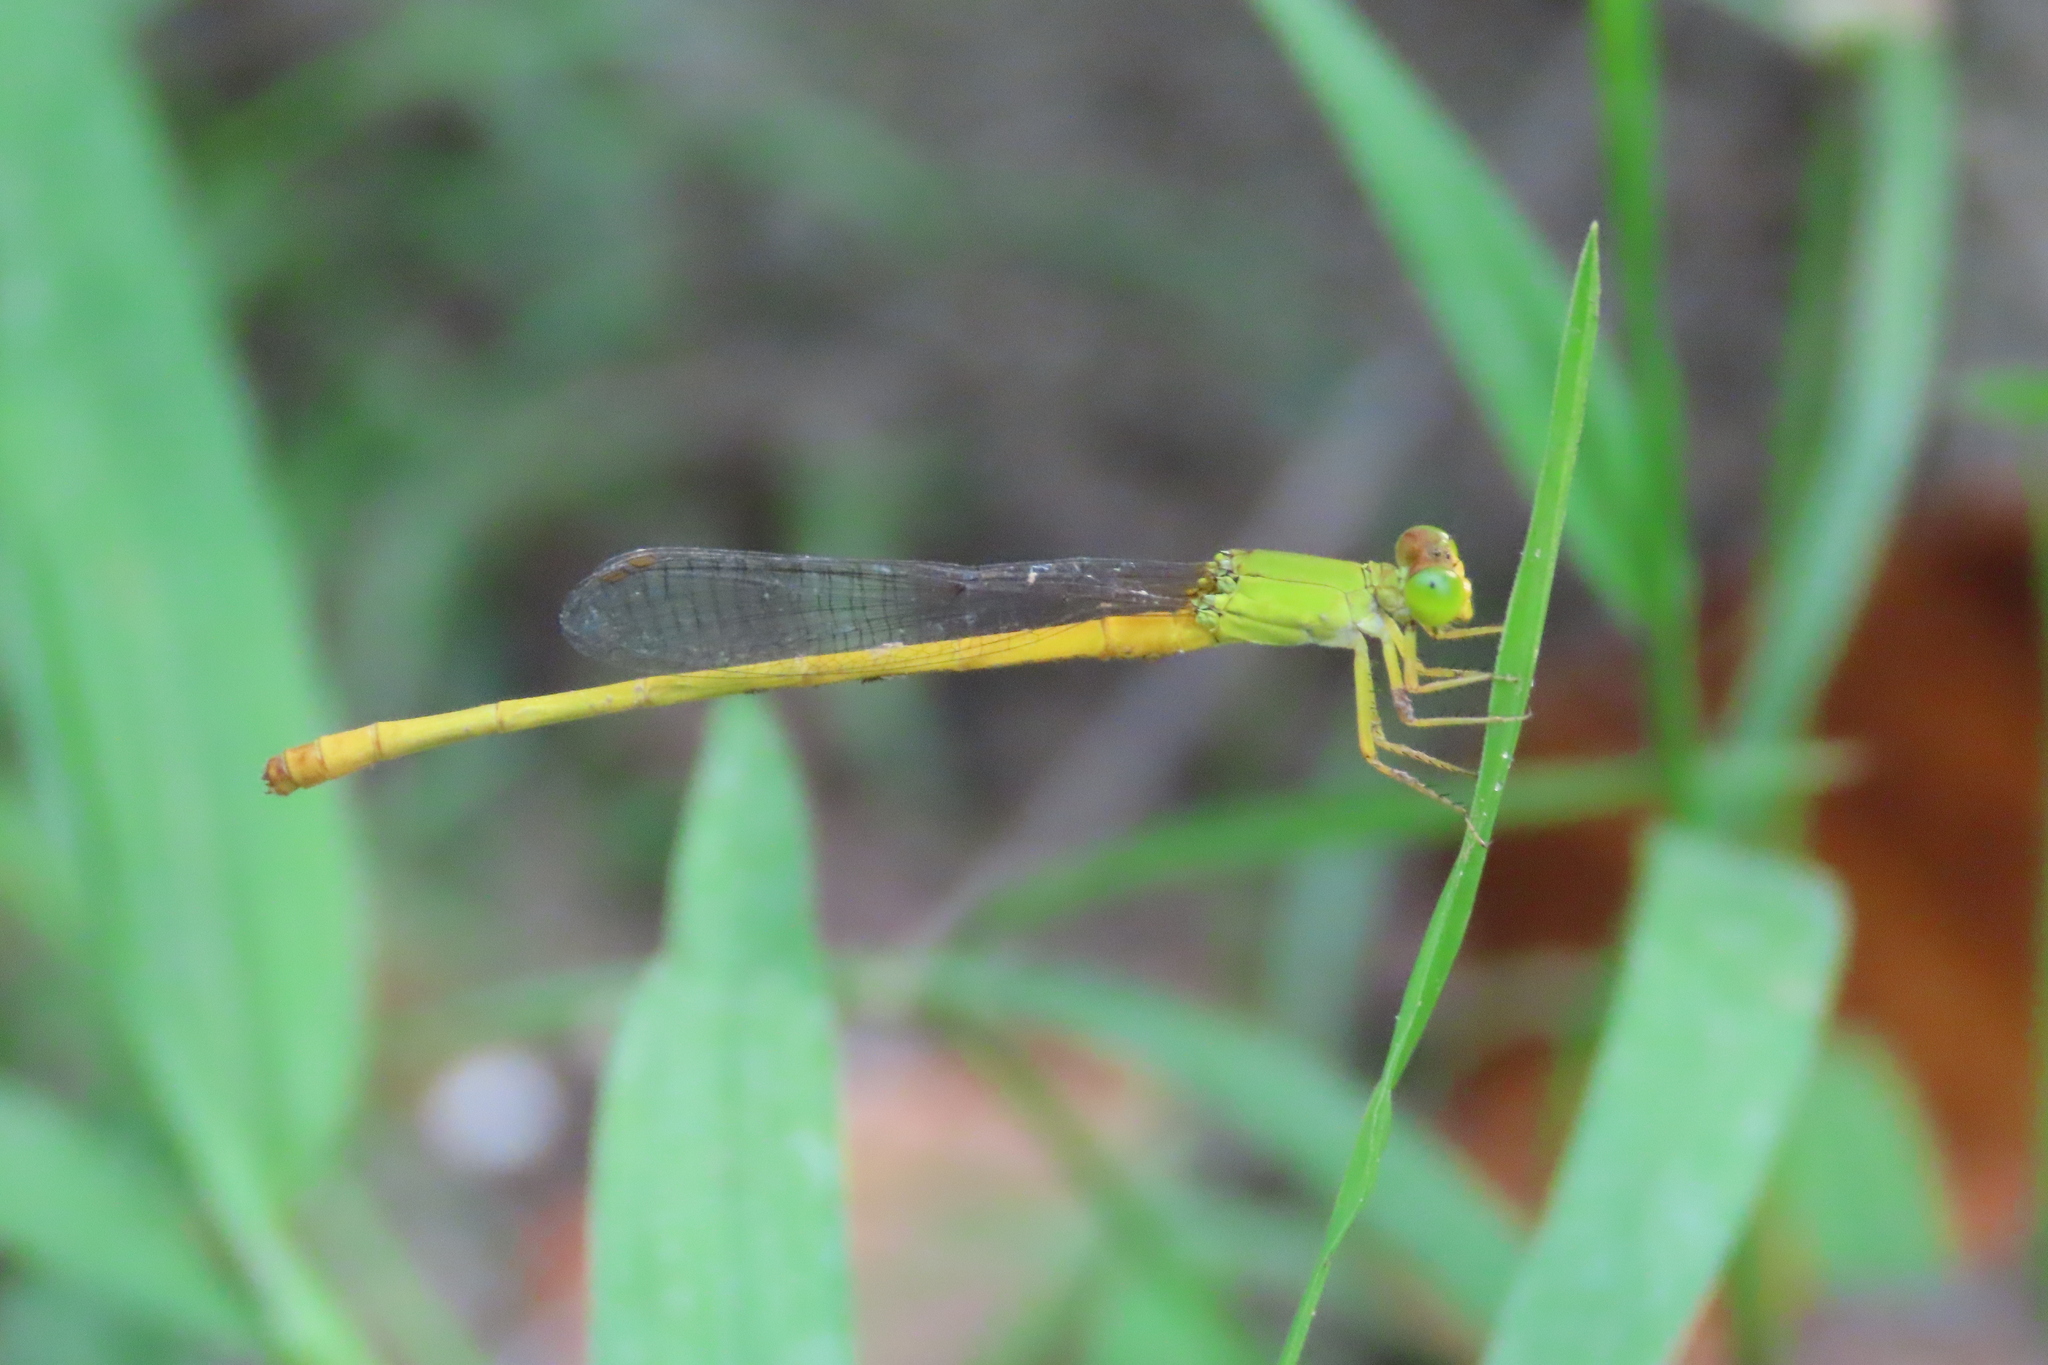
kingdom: Animalia
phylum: Arthropoda
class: Insecta
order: Odonata
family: Coenagrionidae
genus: Ceriagrion
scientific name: Ceriagrion coromandelianum
